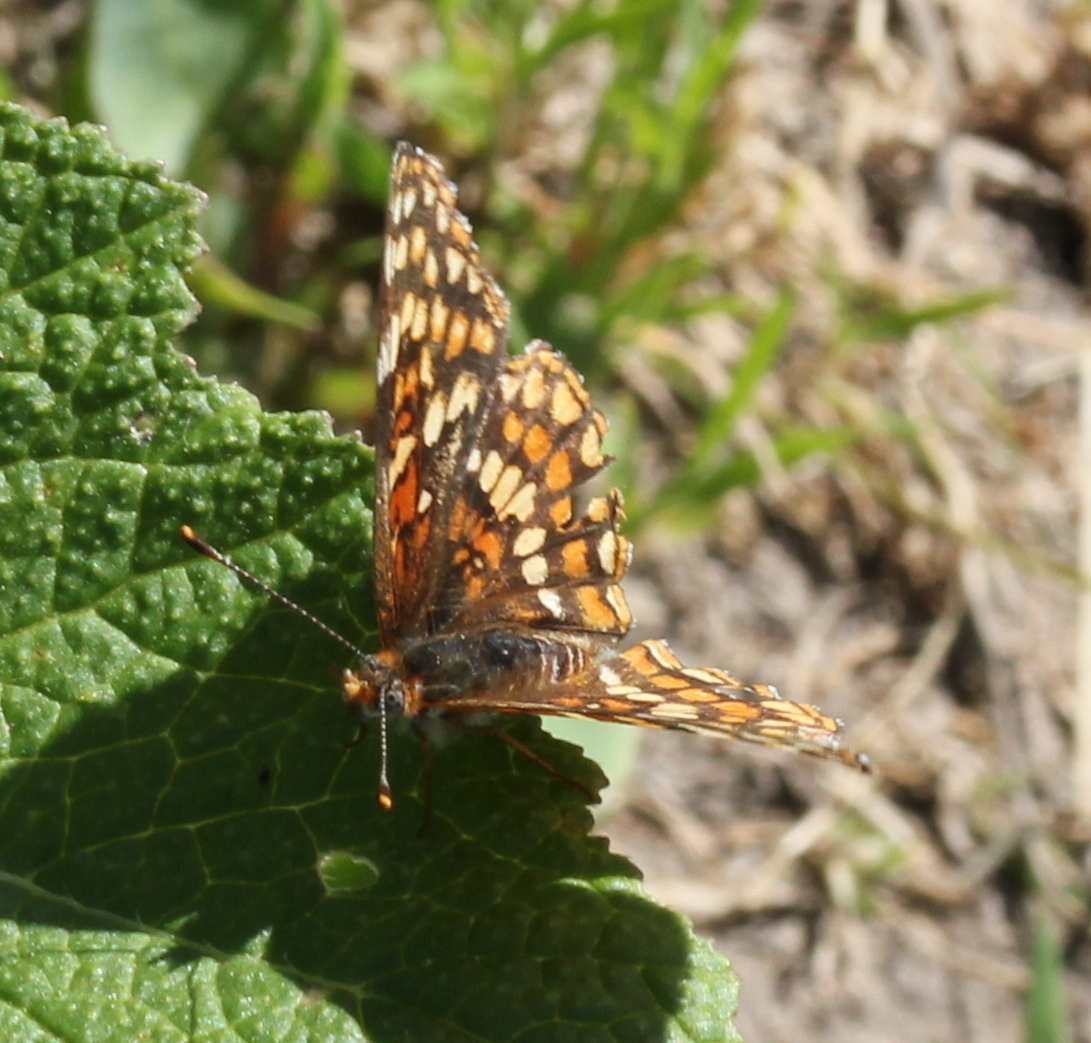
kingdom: Animalia
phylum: Arthropoda
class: Insecta
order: Lepidoptera
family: Nymphalidae
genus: Chlosyne
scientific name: Chlosyne gabbii
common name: Gabb's checkerspot
